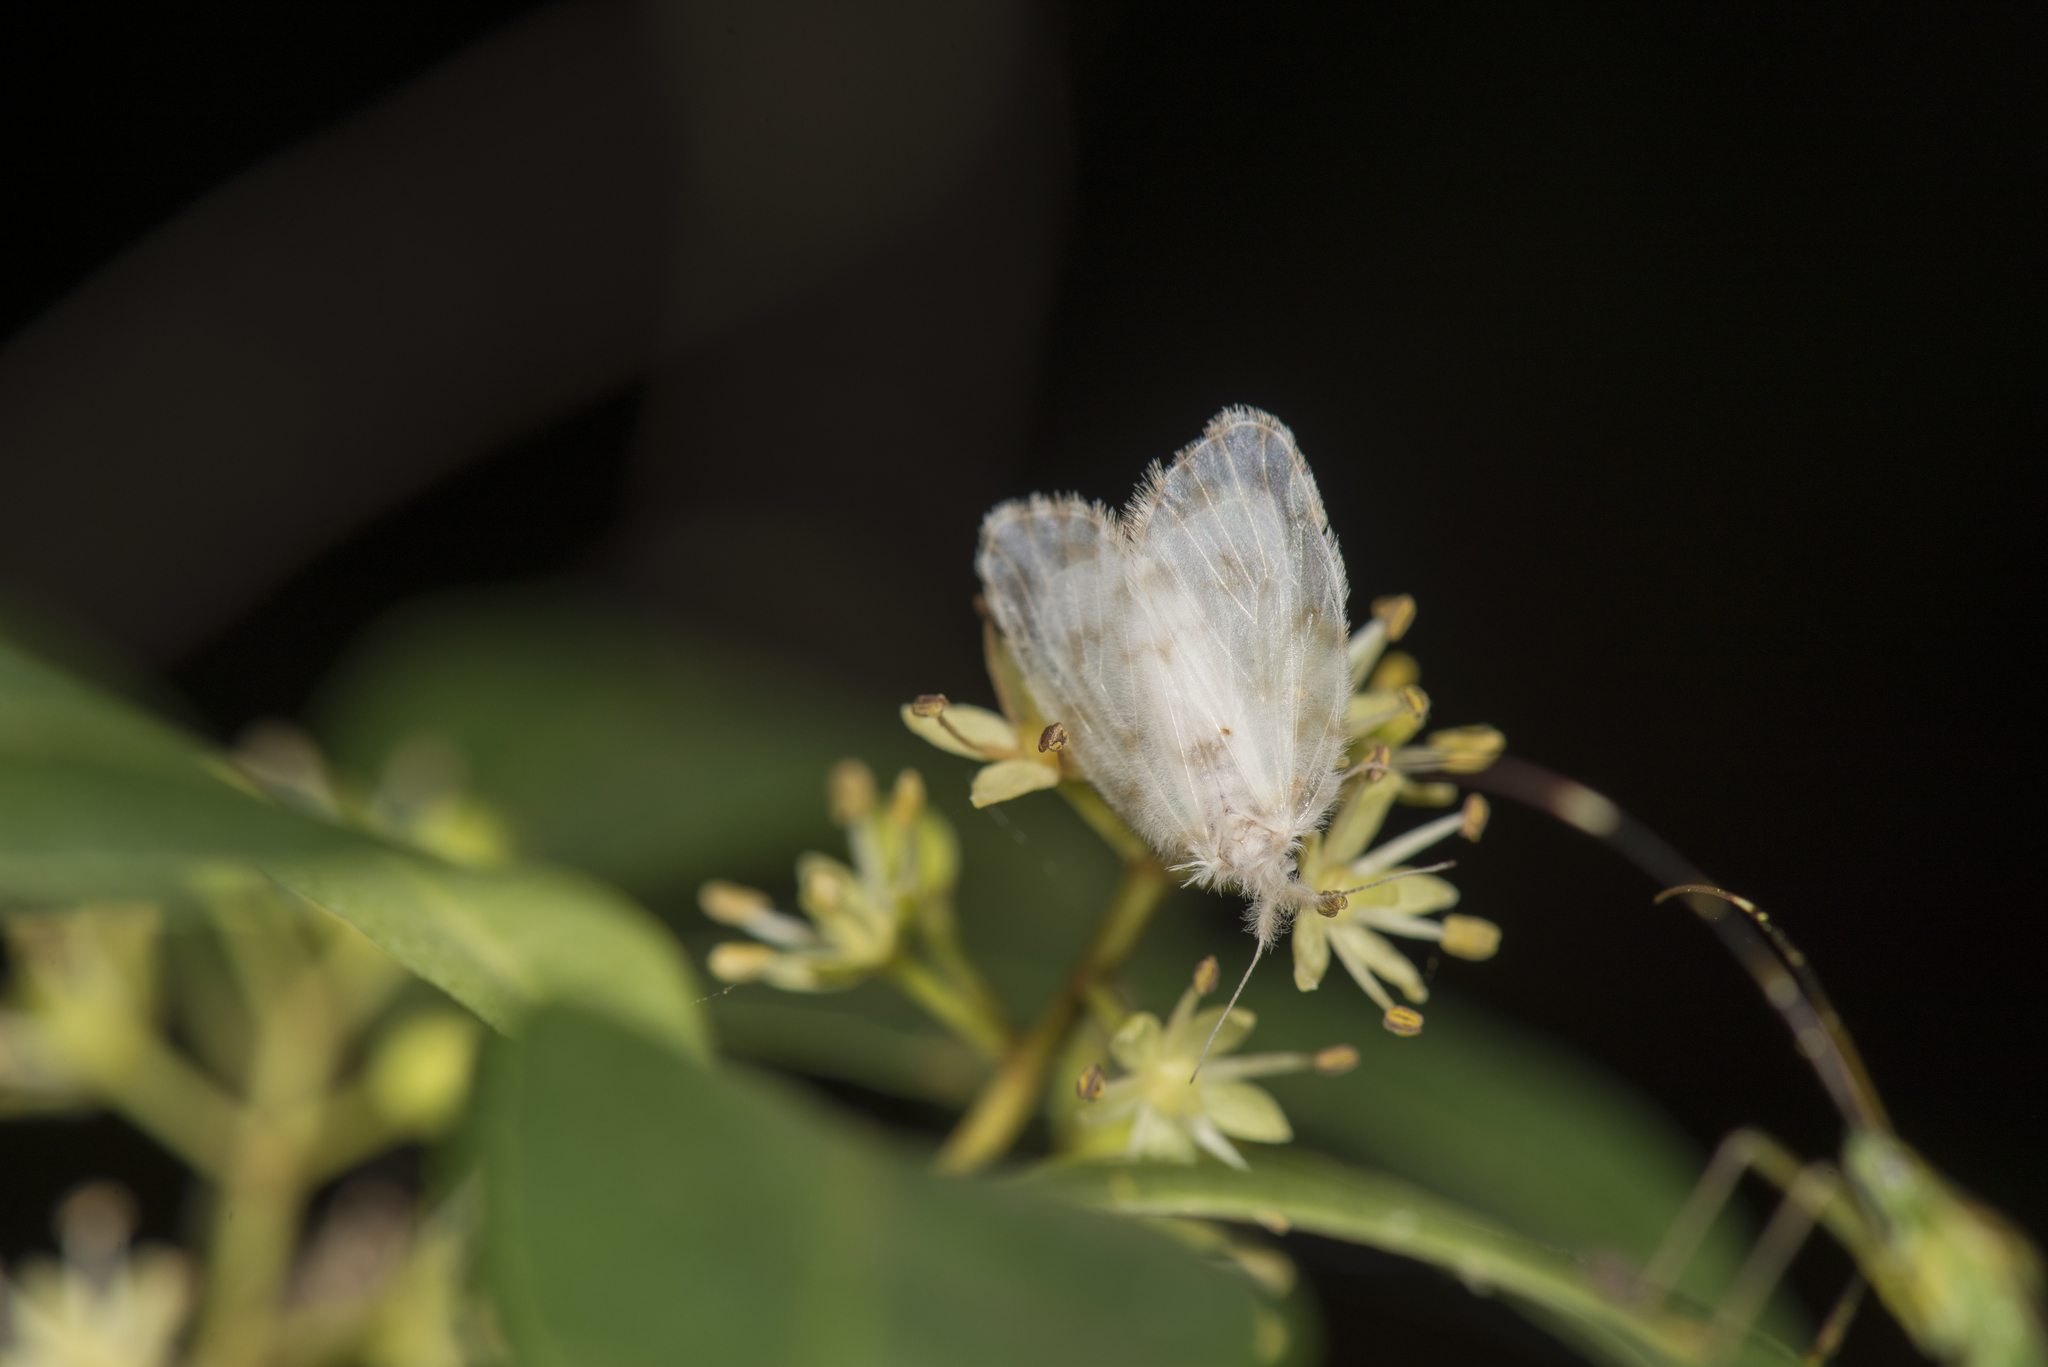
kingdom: Animalia
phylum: Arthropoda
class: Insecta
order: Lepidoptera
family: Erebidae
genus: Chamaita
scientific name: Chamaita hirta
